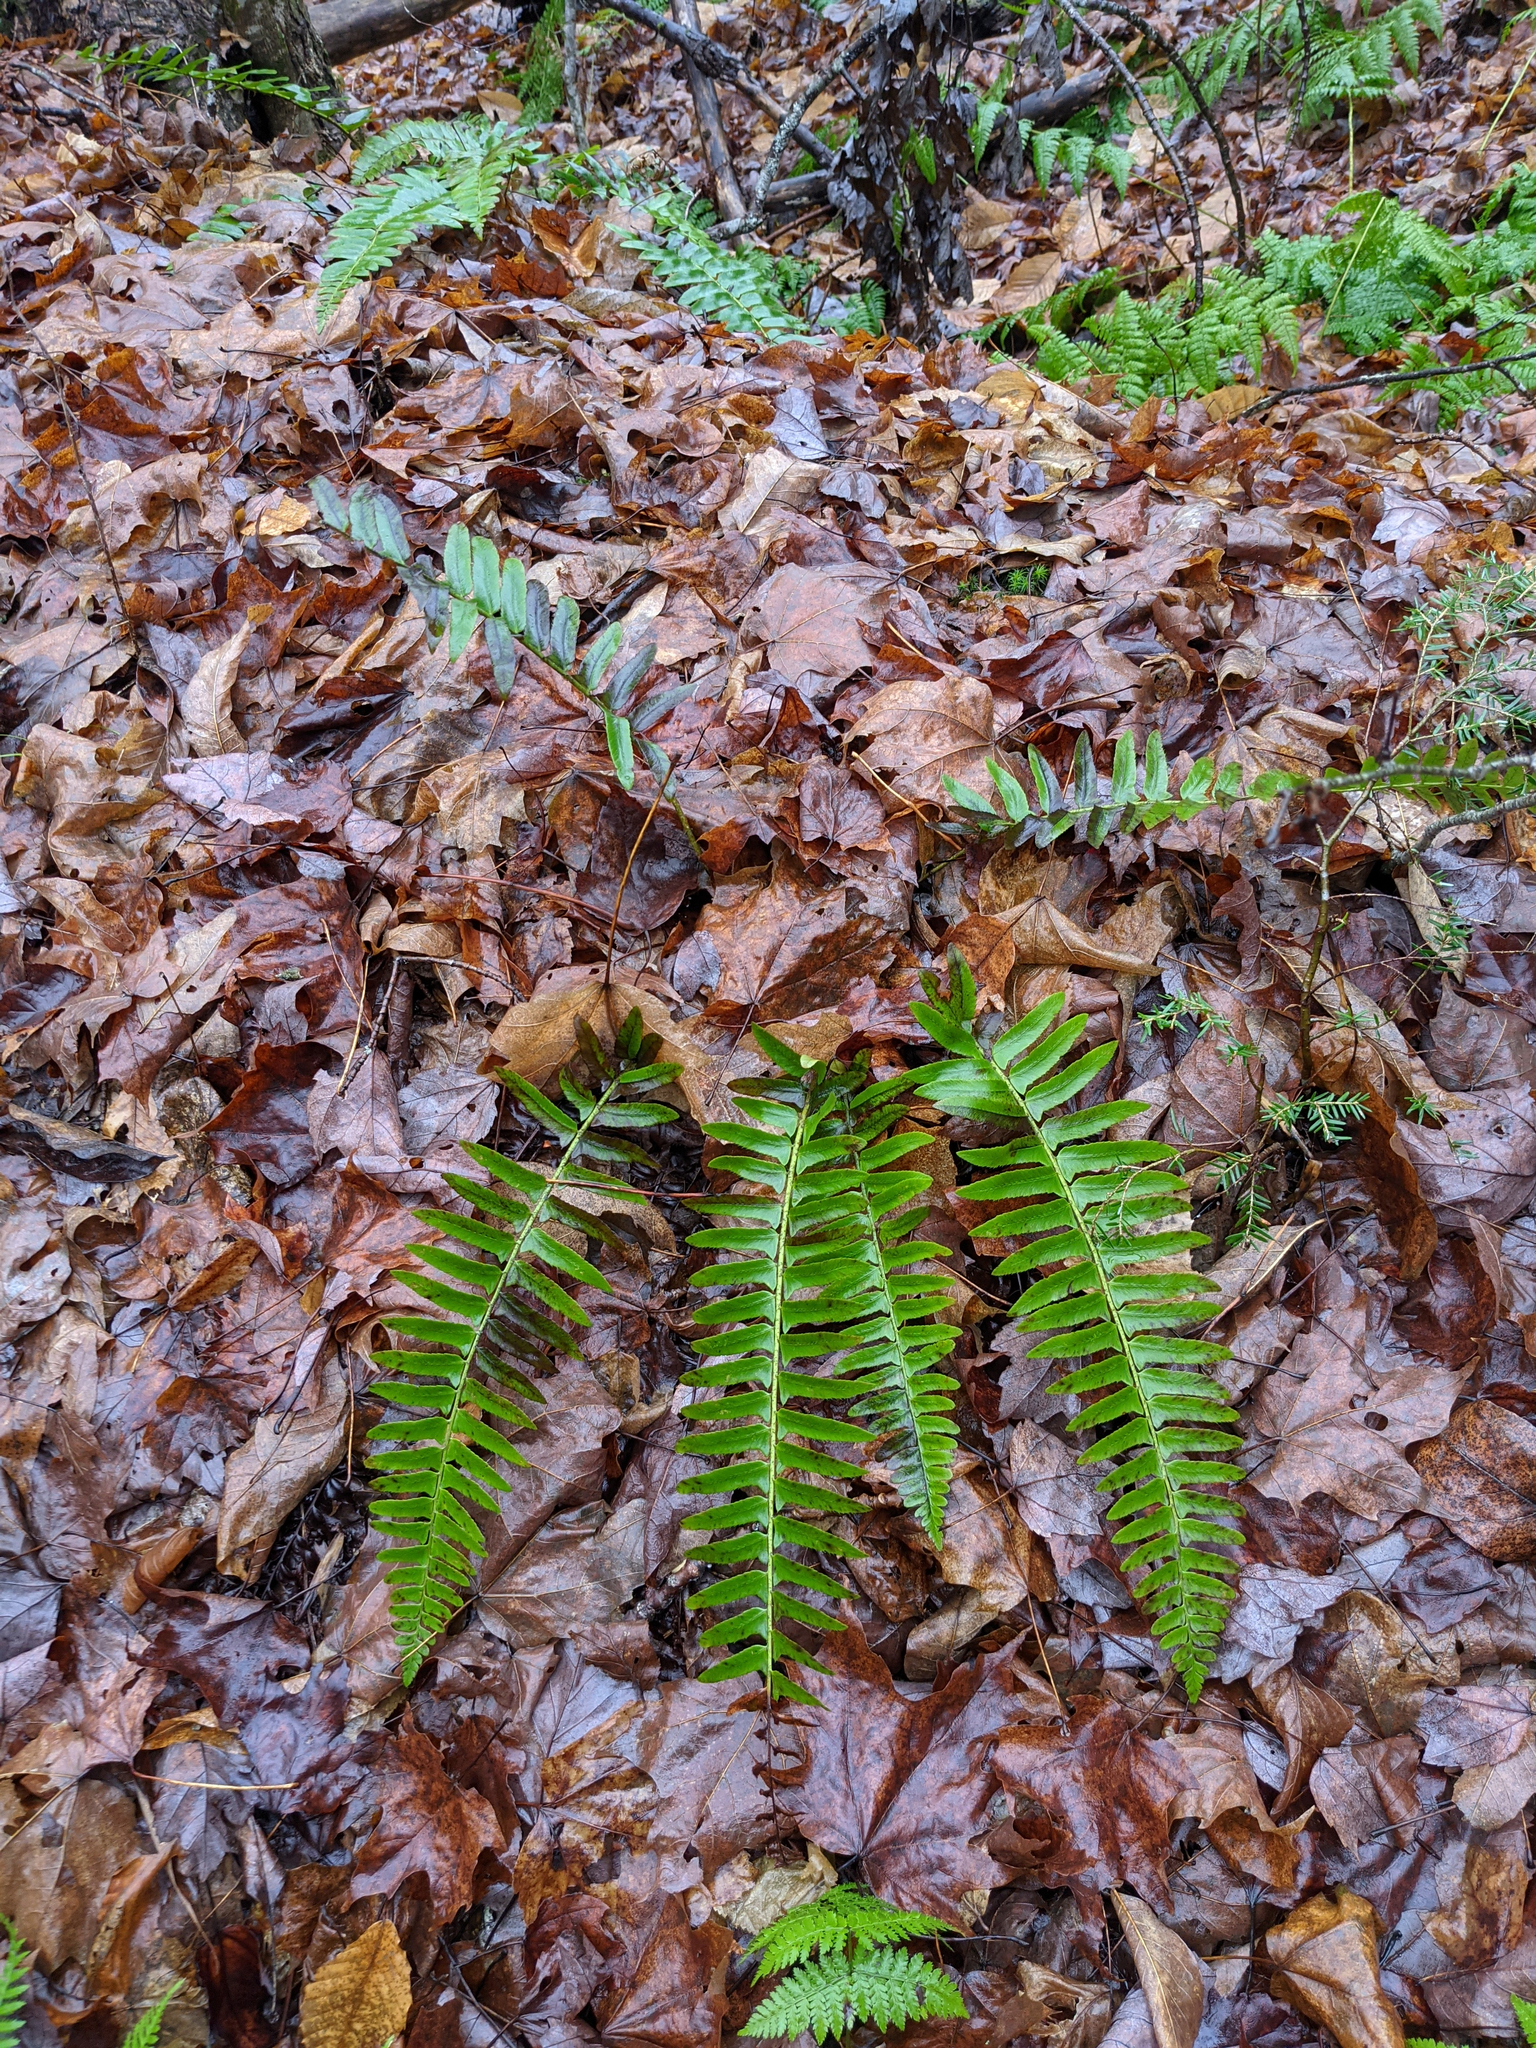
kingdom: Plantae
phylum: Tracheophyta
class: Polypodiopsida
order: Polypodiales
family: Dryopteridaceae
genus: Polystichum
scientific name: Polystichum acrostichoides
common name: Christmas fern
